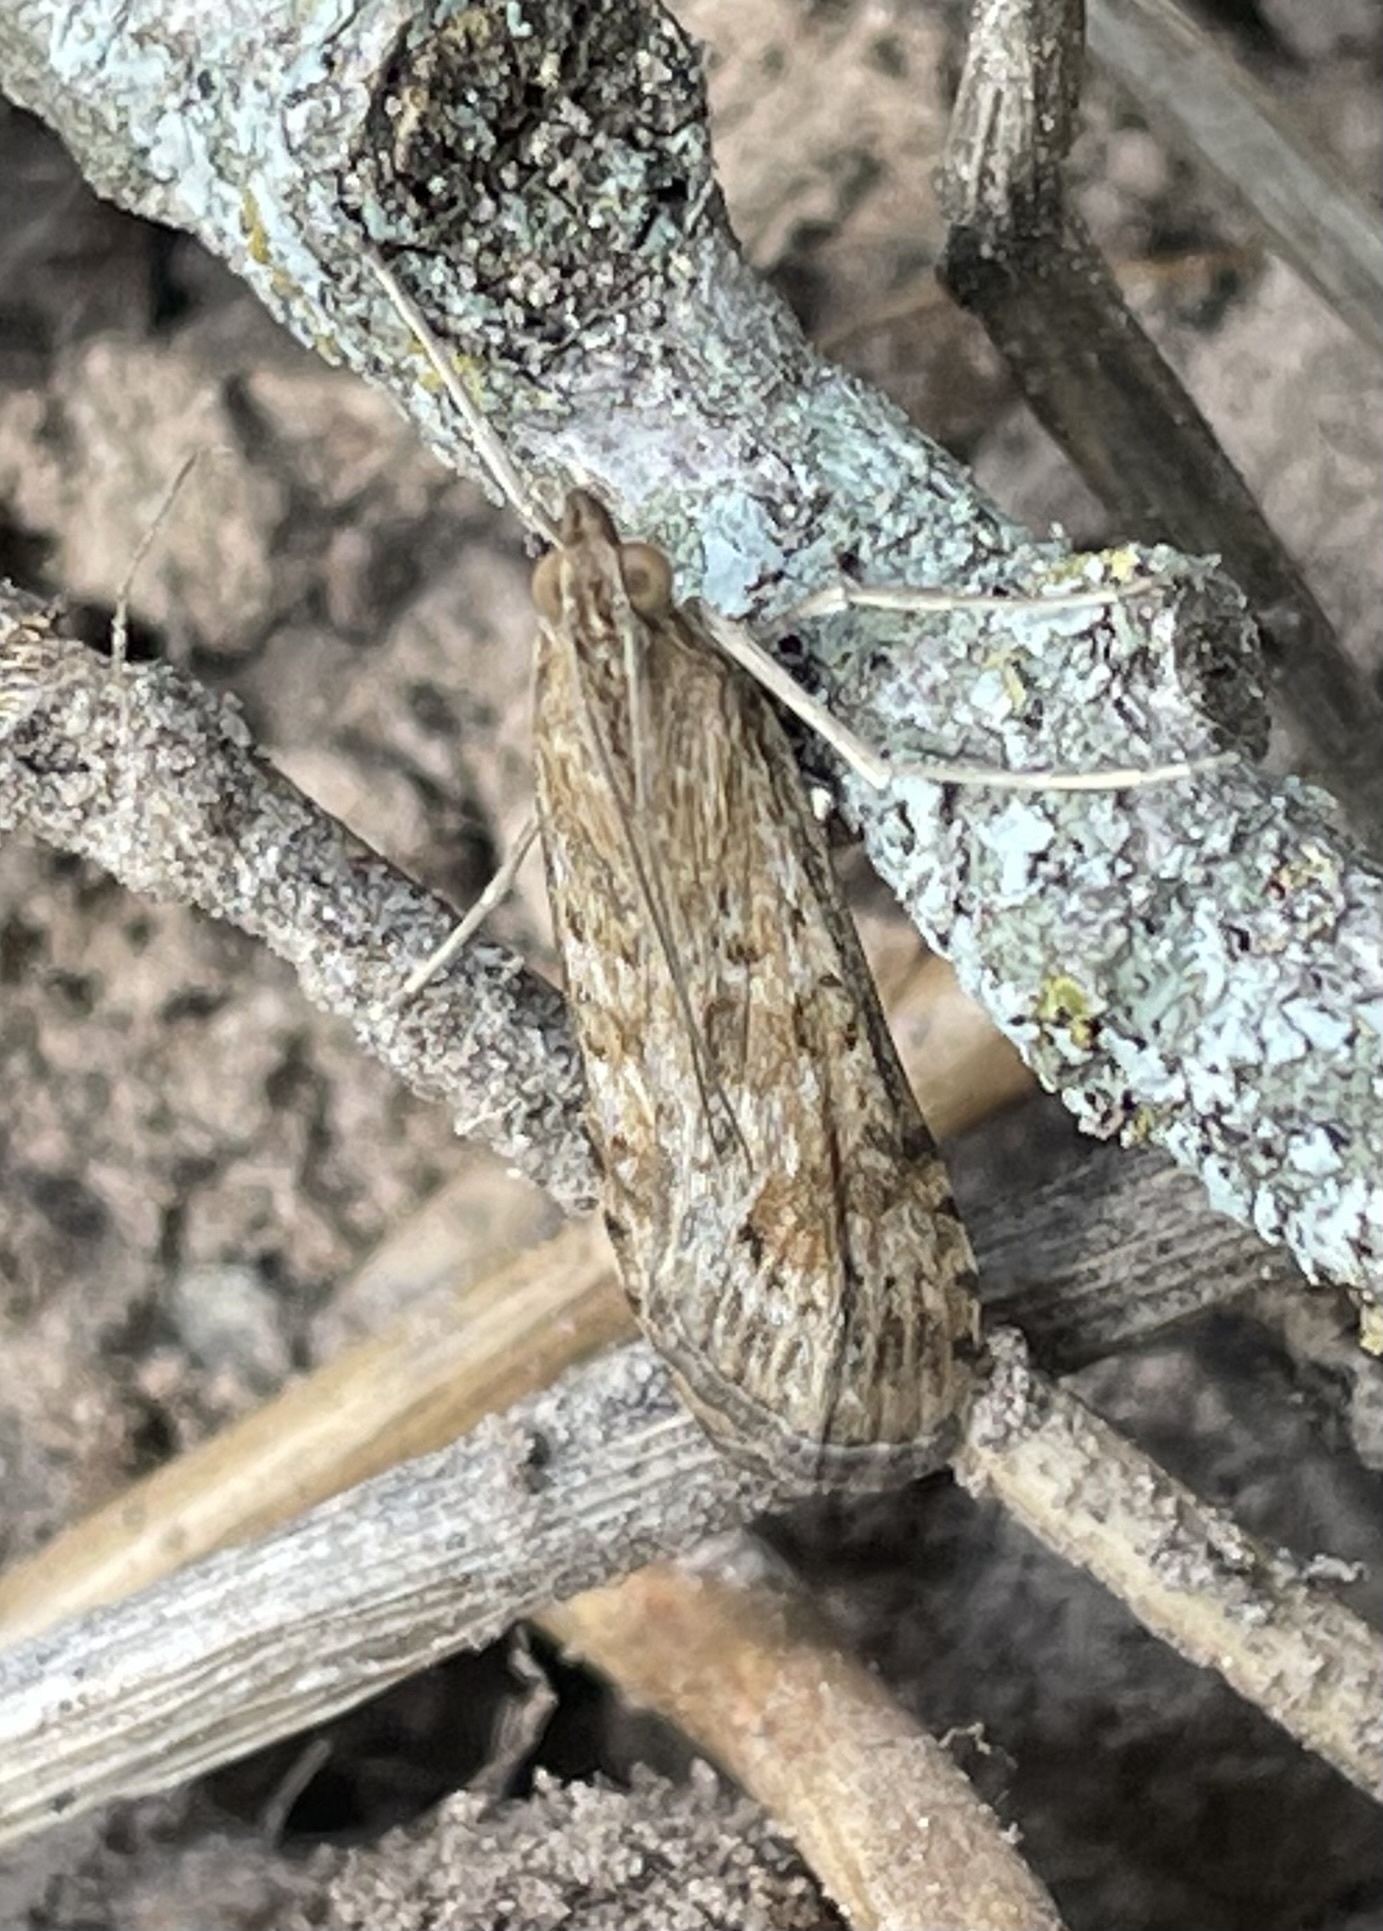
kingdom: Animalia
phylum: Arthropoda
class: Insecta
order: Lepidoptera
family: Crambidae
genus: Nomophila
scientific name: Nomophila nearctica
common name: American rush veneer
